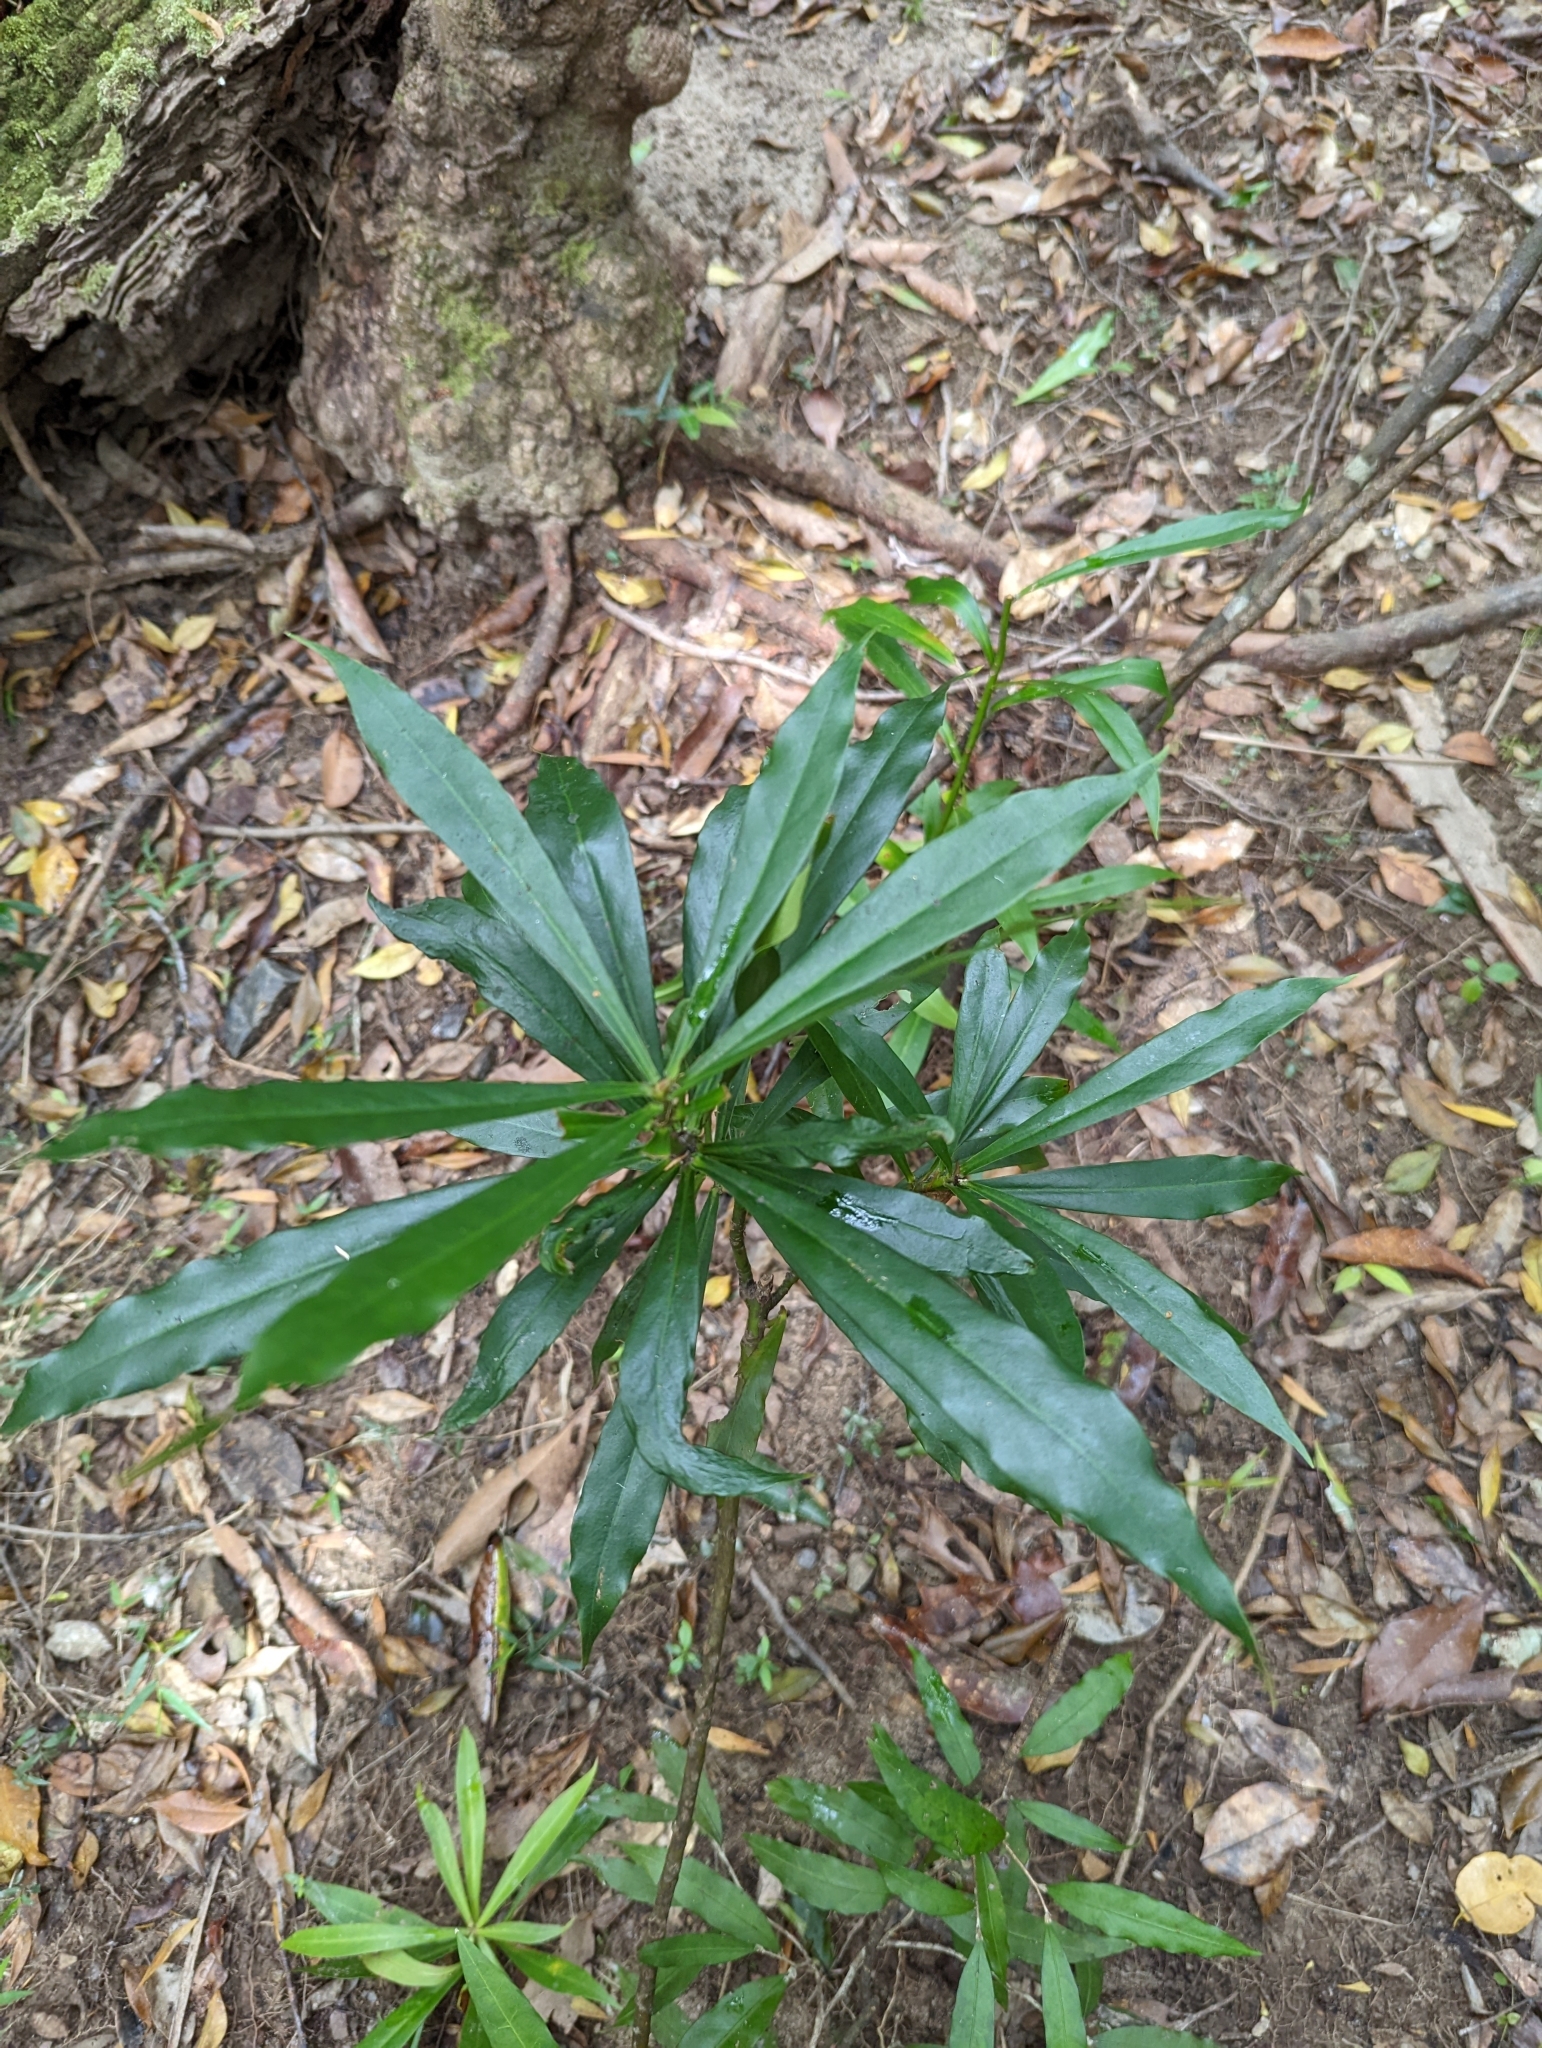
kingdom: Plantae
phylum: Tracheophyta
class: Magnoliopsida
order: Canellales
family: Winteraceae
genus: Drimys
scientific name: Drimys insipida
